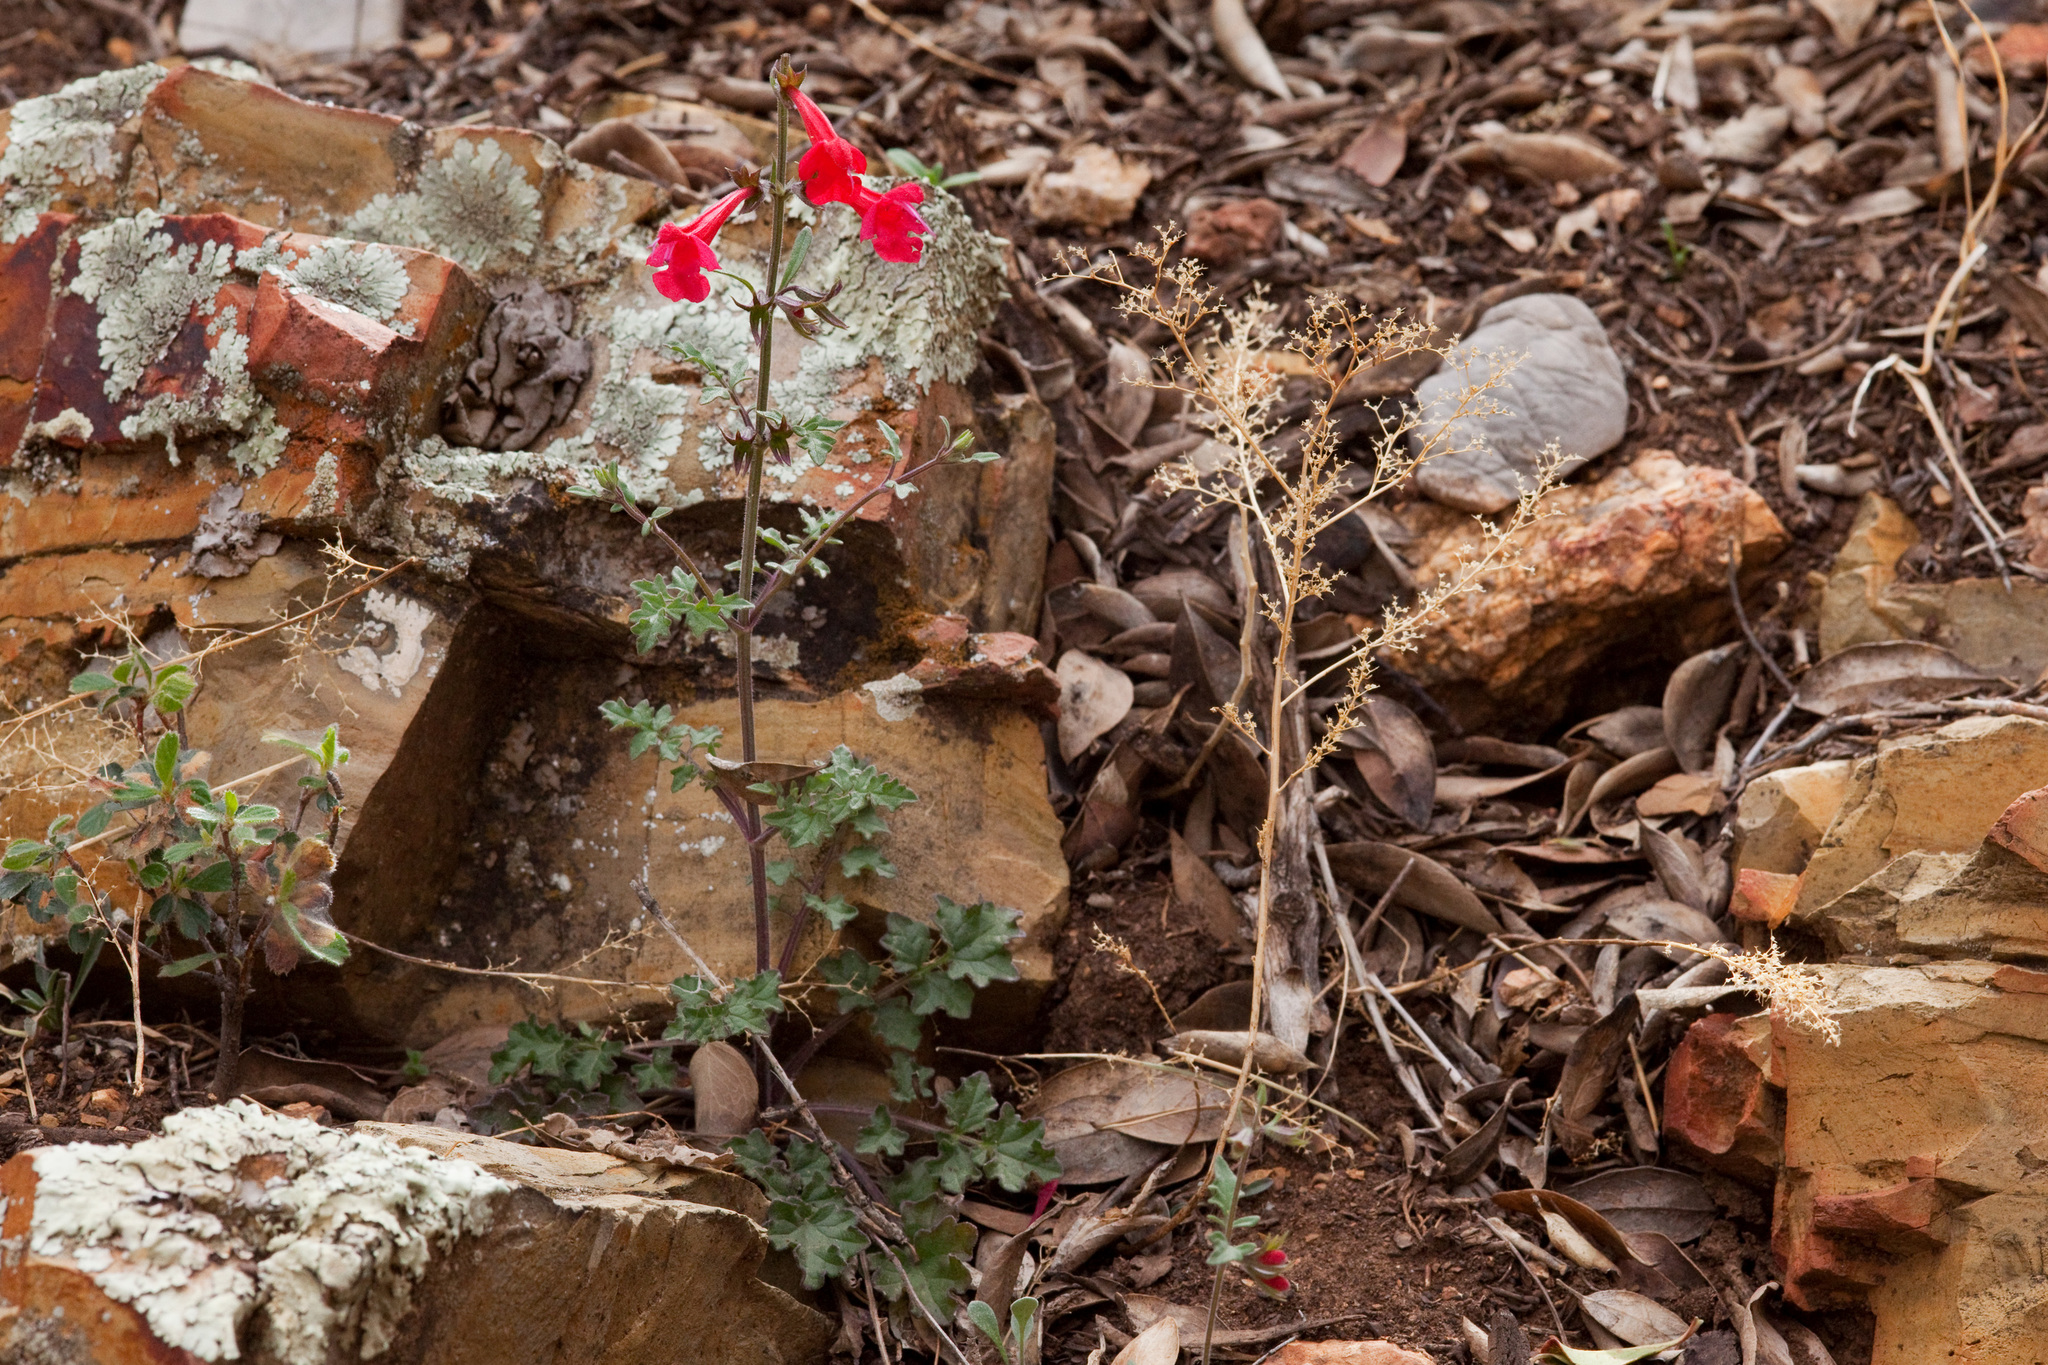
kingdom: Plantae
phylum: Tracheophyta
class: Magnoliopsida
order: Lamiales
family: Lamiaceae
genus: Salvia
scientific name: Salvia henryi
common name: Henry's sage
